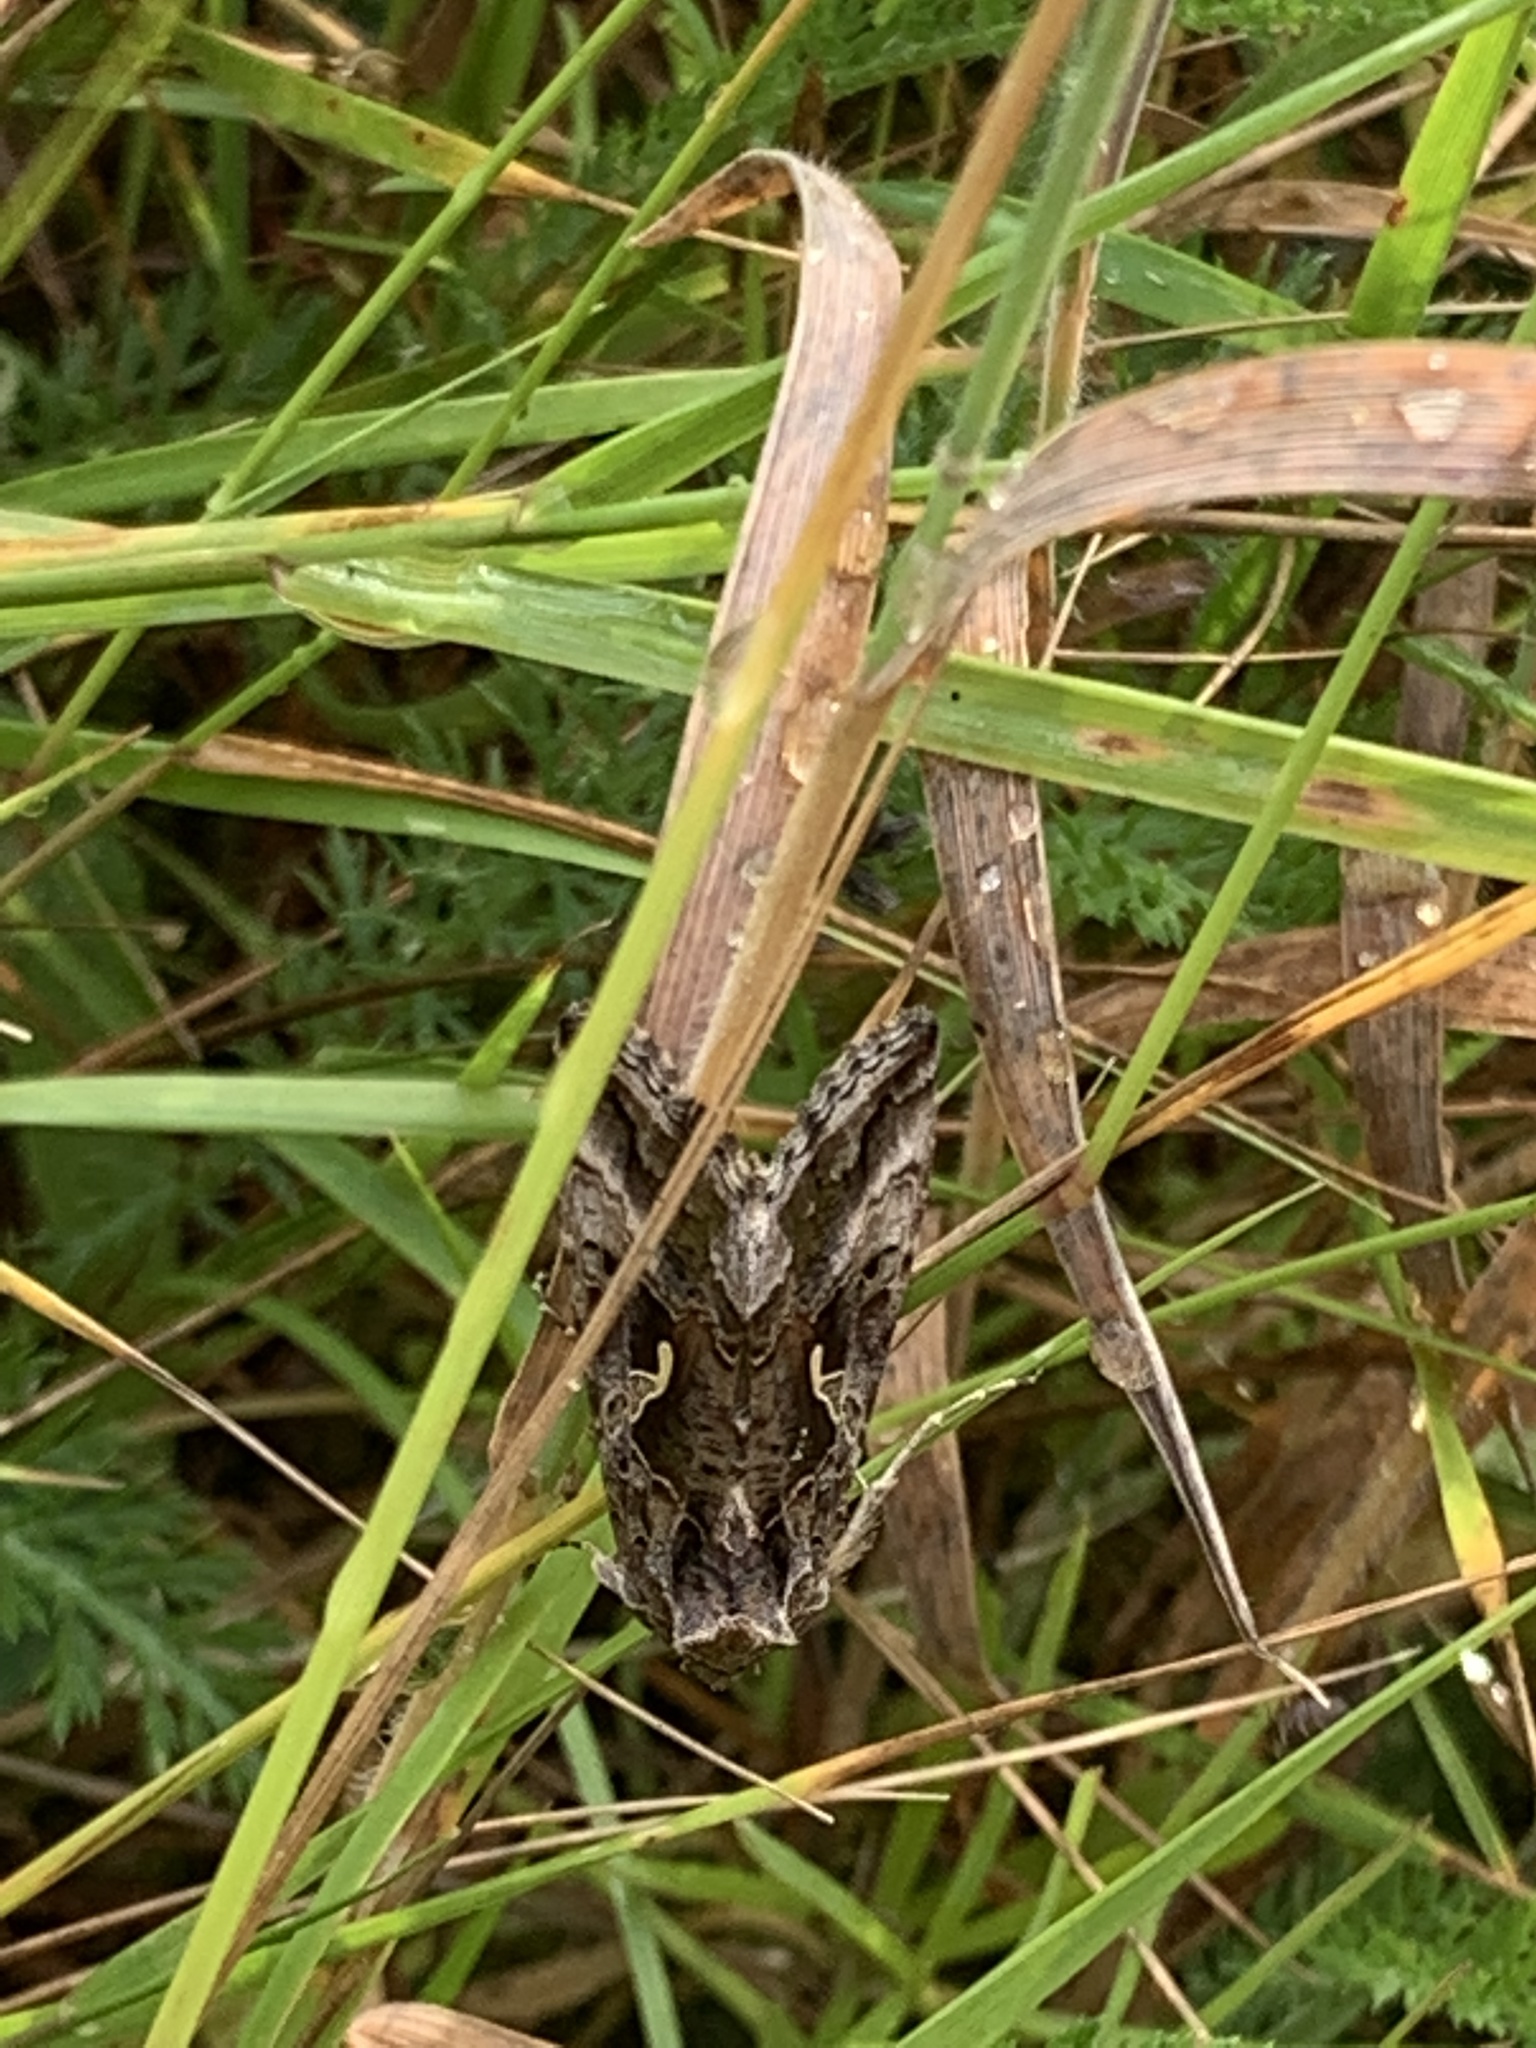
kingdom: Animalia
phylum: Arthropoda
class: Insecta
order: Lepidoptera
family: Noctuidae
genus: Autographa
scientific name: Autographa gamma
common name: Silver y
